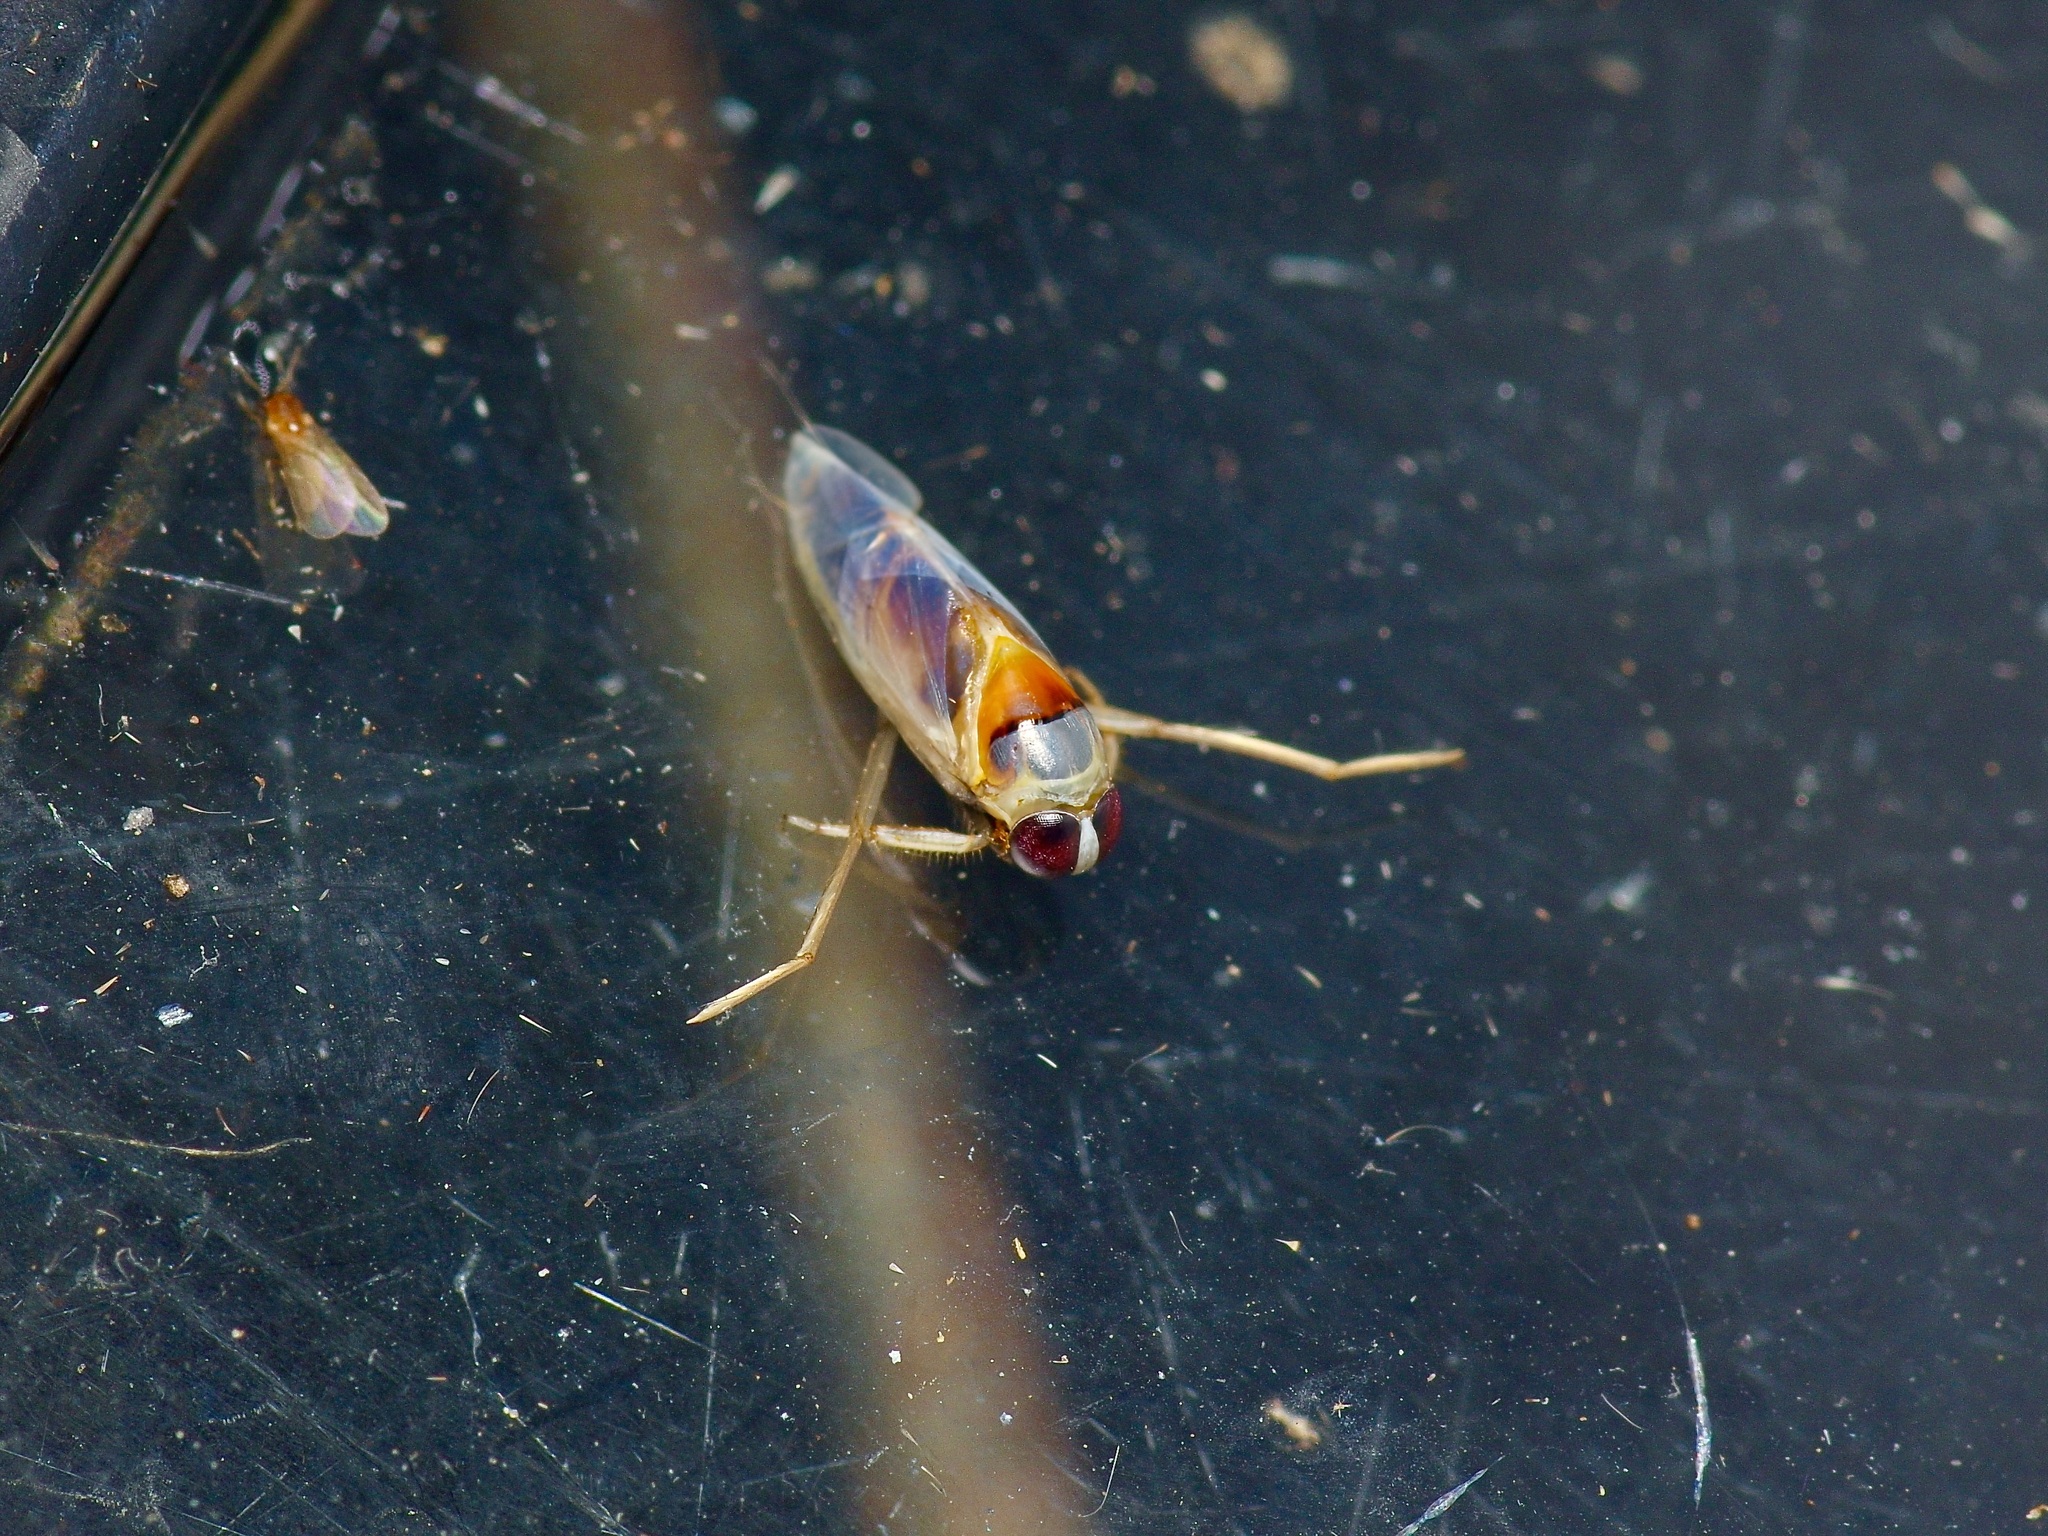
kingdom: Animalia
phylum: Arthropoda
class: Insecta
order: Hemiptera
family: Notonectidae
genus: Buenoa
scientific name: Buenoa
